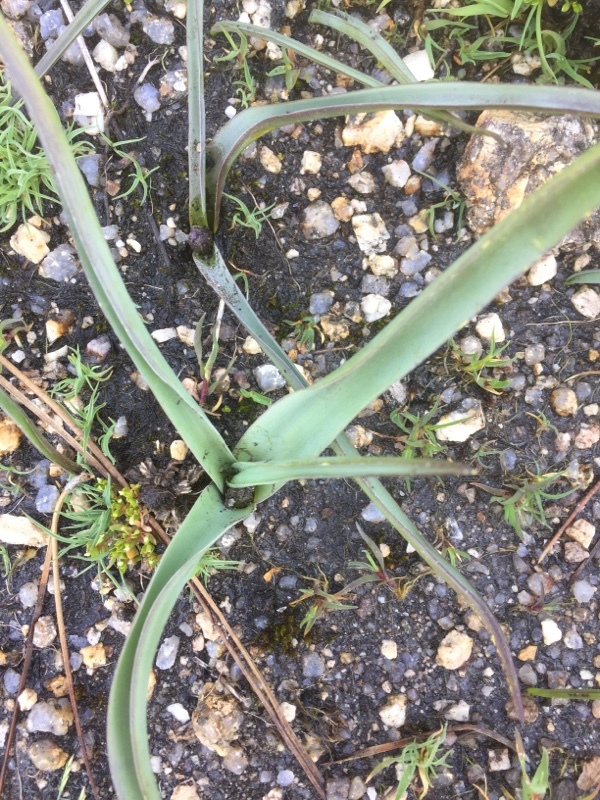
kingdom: Plantae
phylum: Tracheophyta
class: Liliopsida
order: Asparagales
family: Asparagaceae
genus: Scilla
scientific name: Scilla verna
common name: Spring squill
